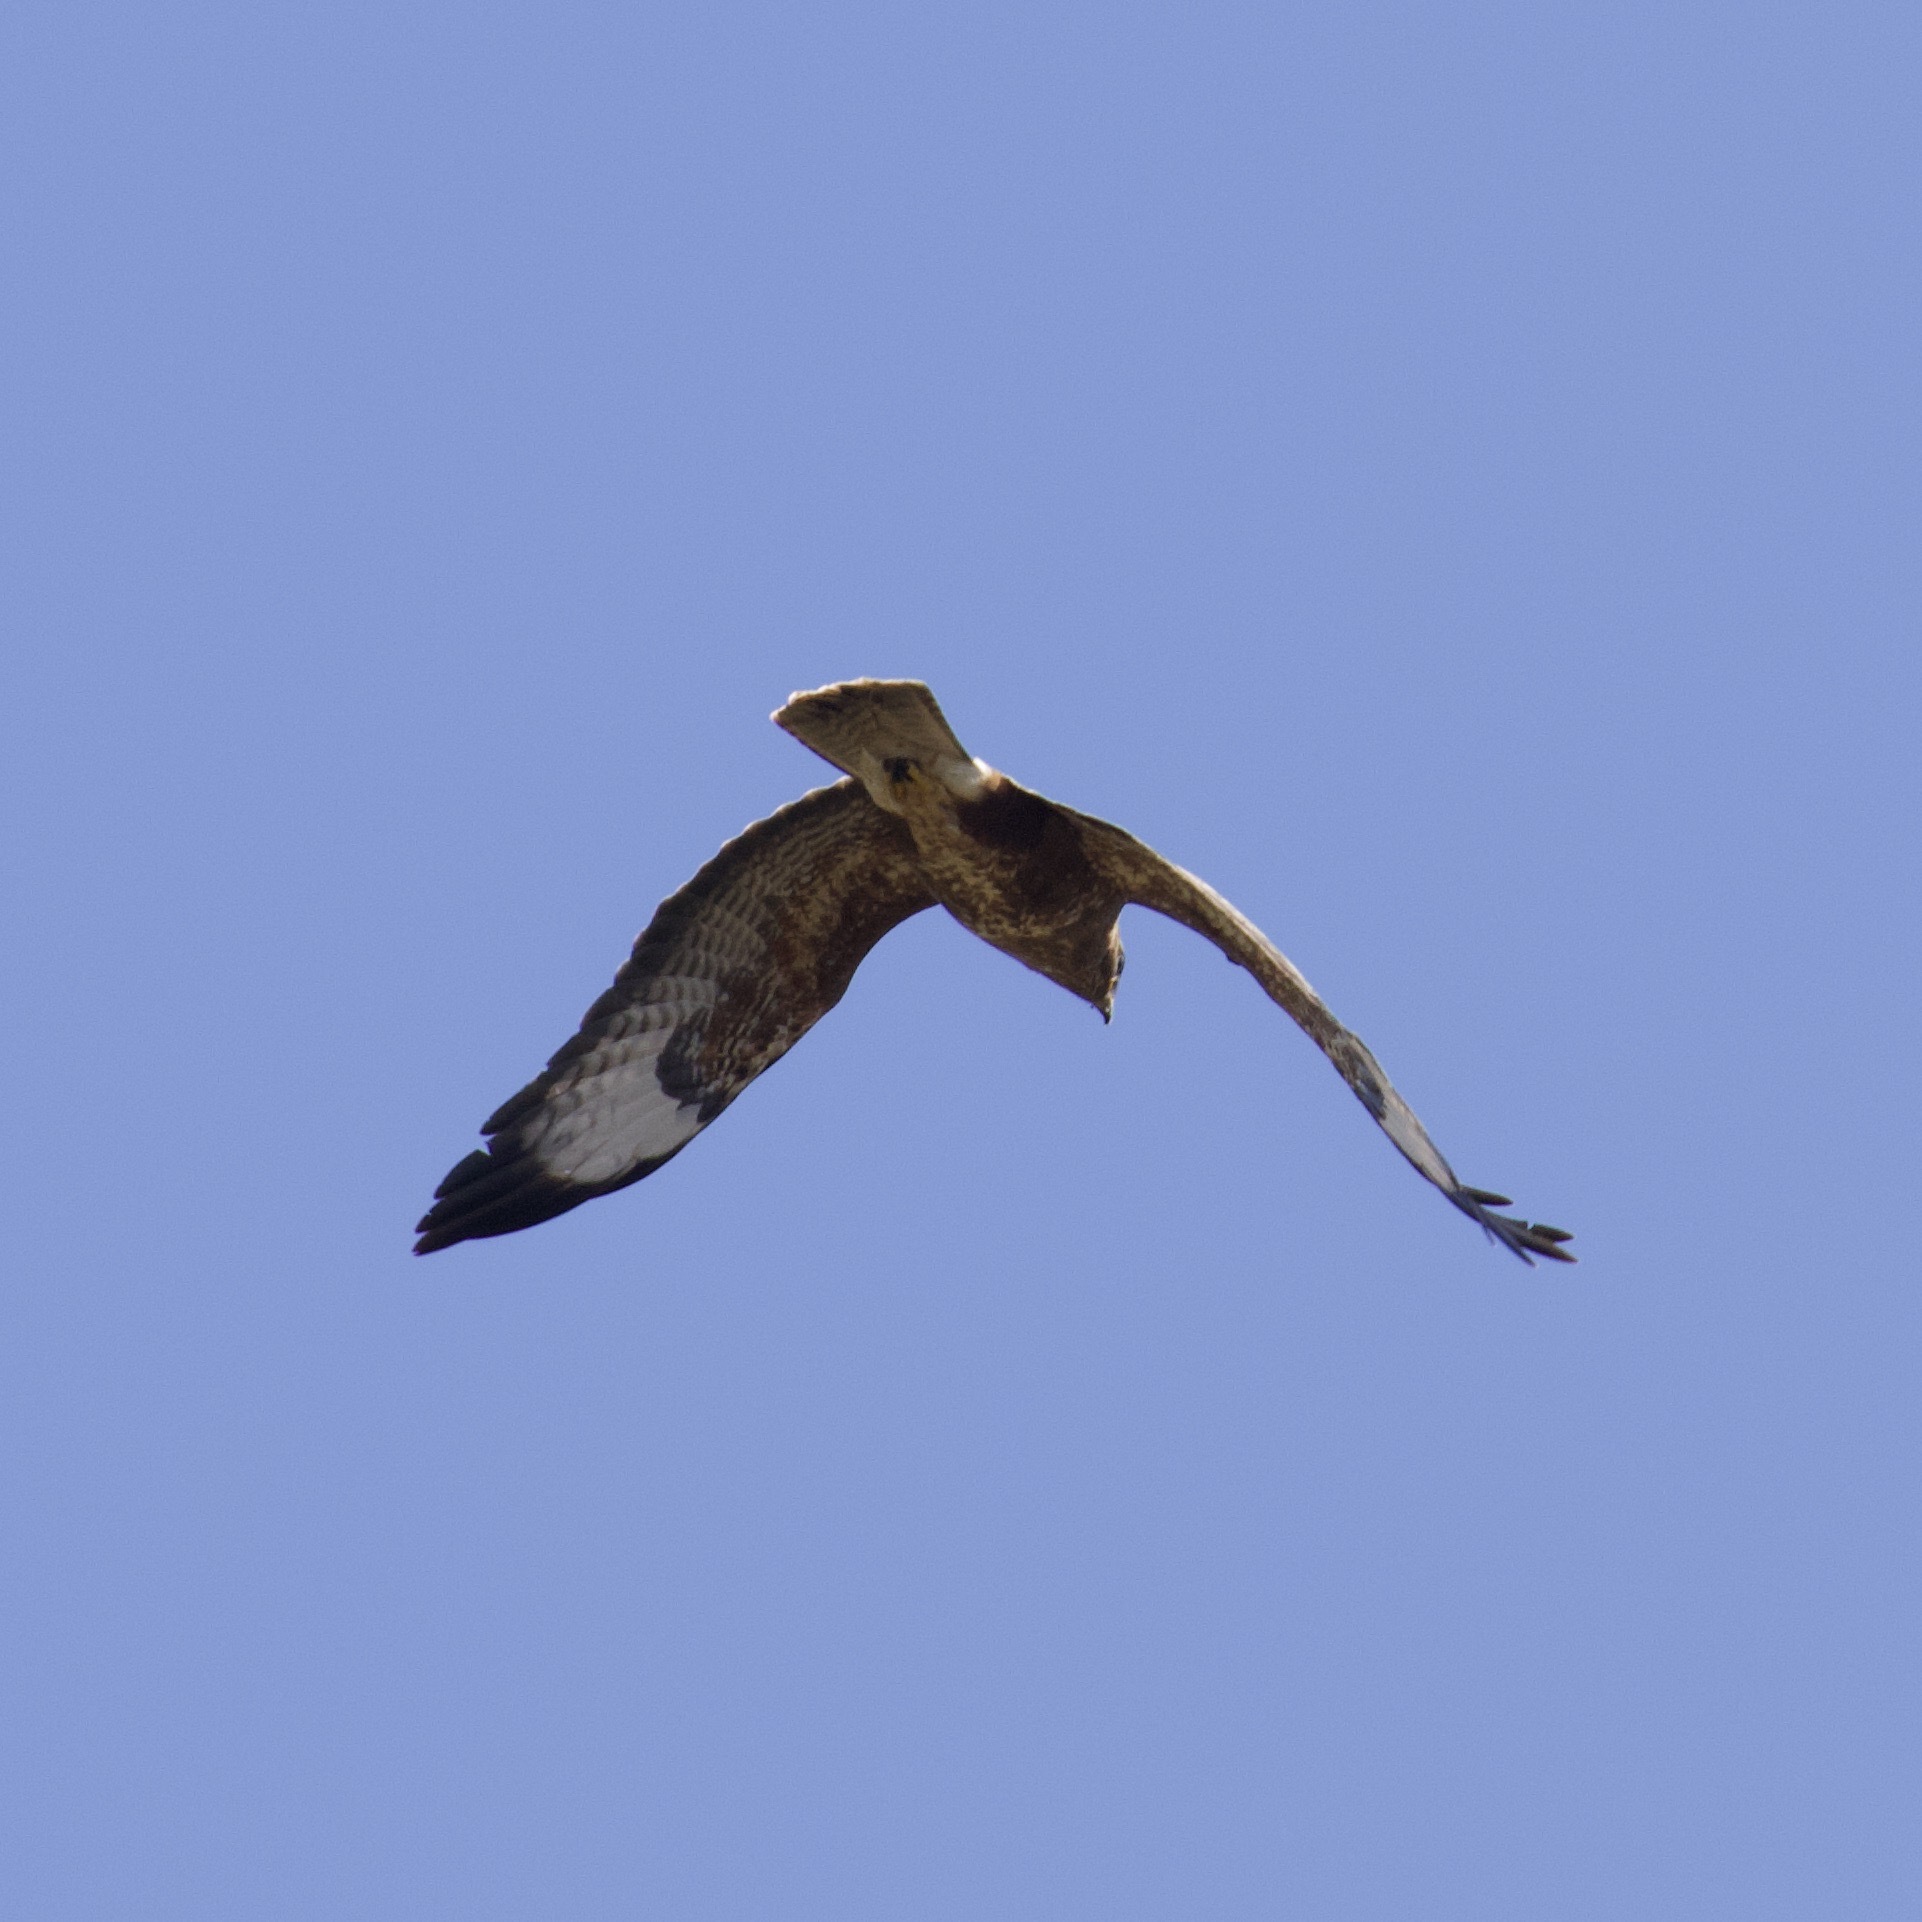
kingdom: Animalia
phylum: Chordata
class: Aves
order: Accipitriformes
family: Accipitridae
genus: Buteo
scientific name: Buteo buteo
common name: Common buzzard
